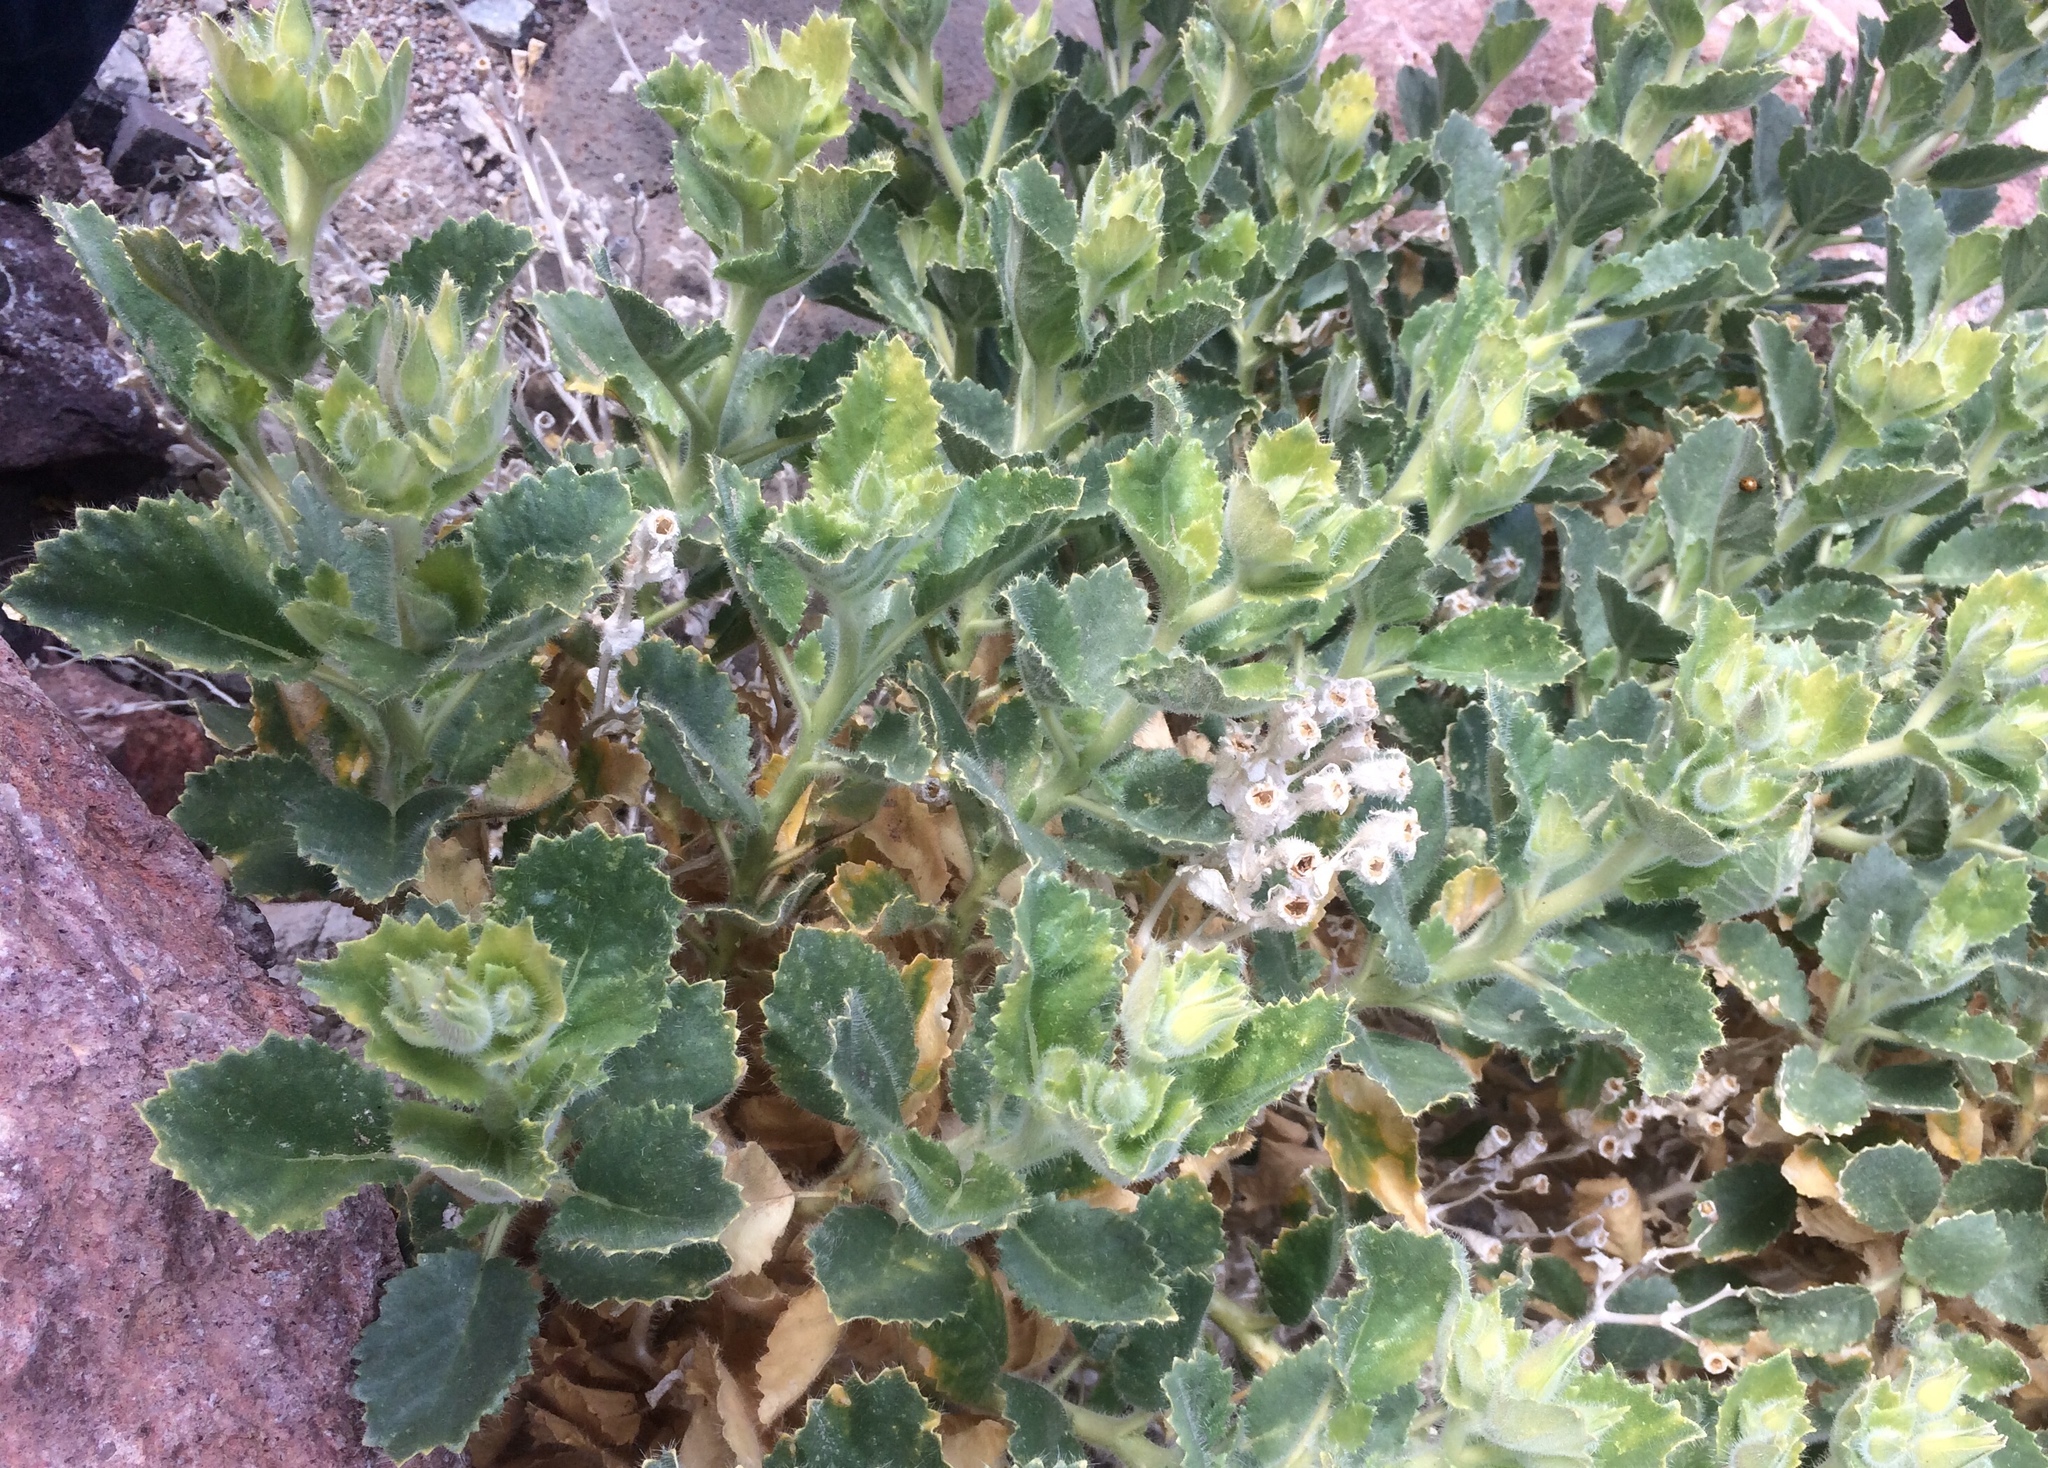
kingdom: Plantae
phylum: Tracheophyta
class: Magnoliopsida
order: Cornales
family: Loasaceae
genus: Eucnide
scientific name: Eucnide urens
